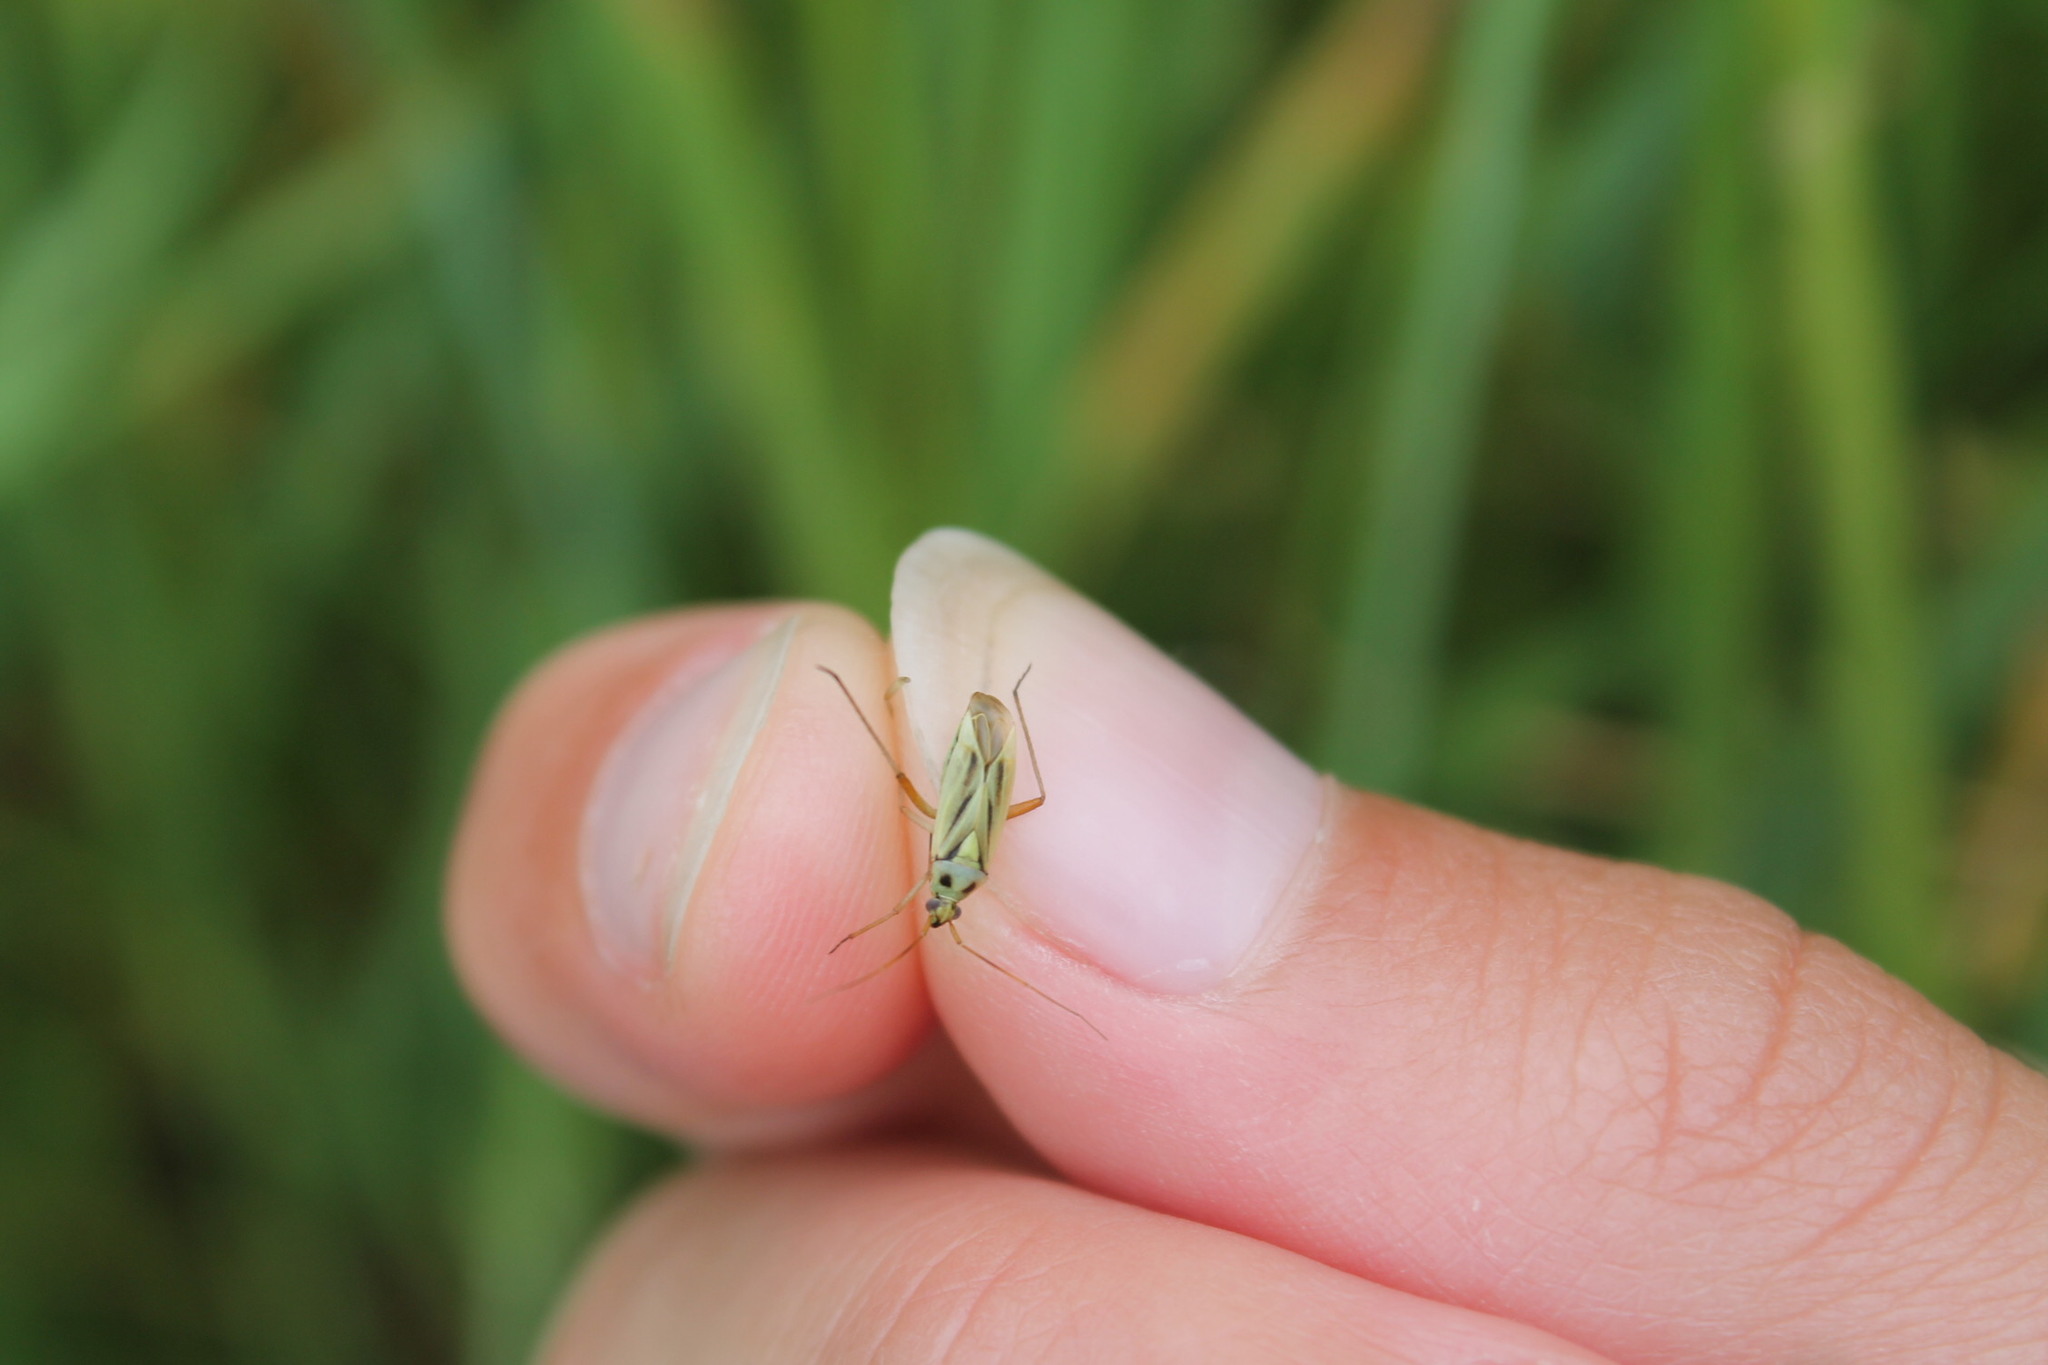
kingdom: Animalia
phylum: Arthropoda
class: Insecta
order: Hemiptera
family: Miridae
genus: Stenotus
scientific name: Stenotus binotatus
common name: Plant bug
